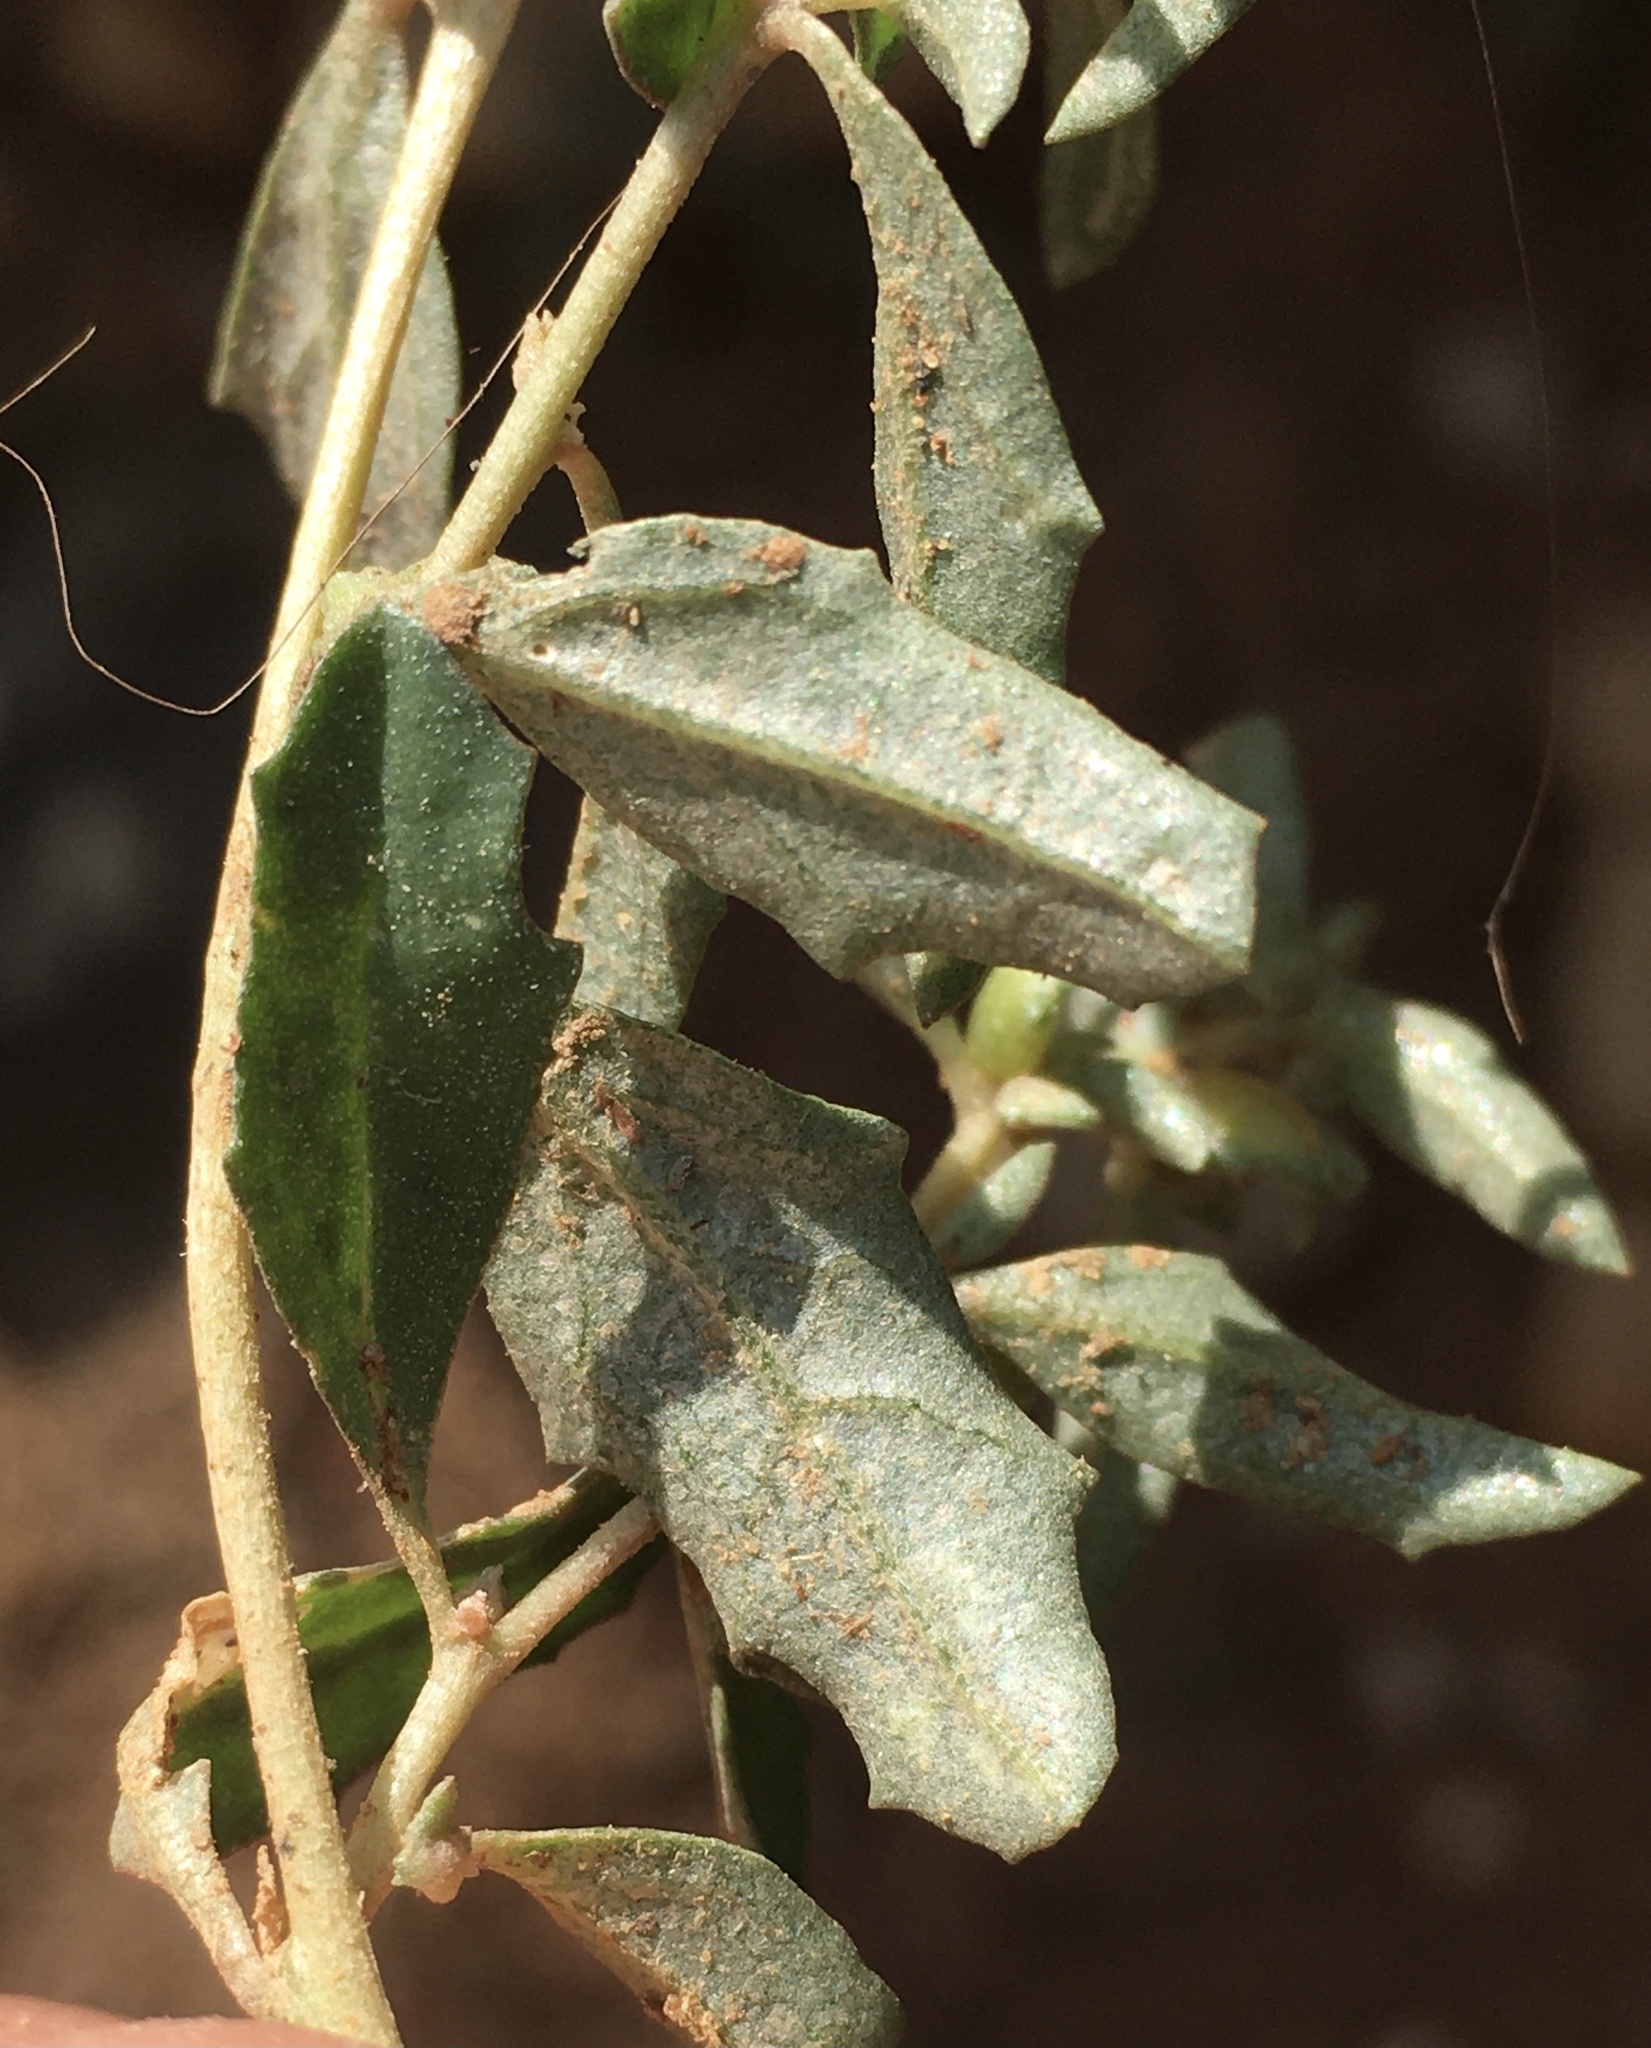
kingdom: Plantae
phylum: Tracheophyta
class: Magnoliopsida
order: Caryophyllales
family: Amaranthaceae
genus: Atriplex
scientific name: Atriplex semibaccata
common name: Australian saltbush
